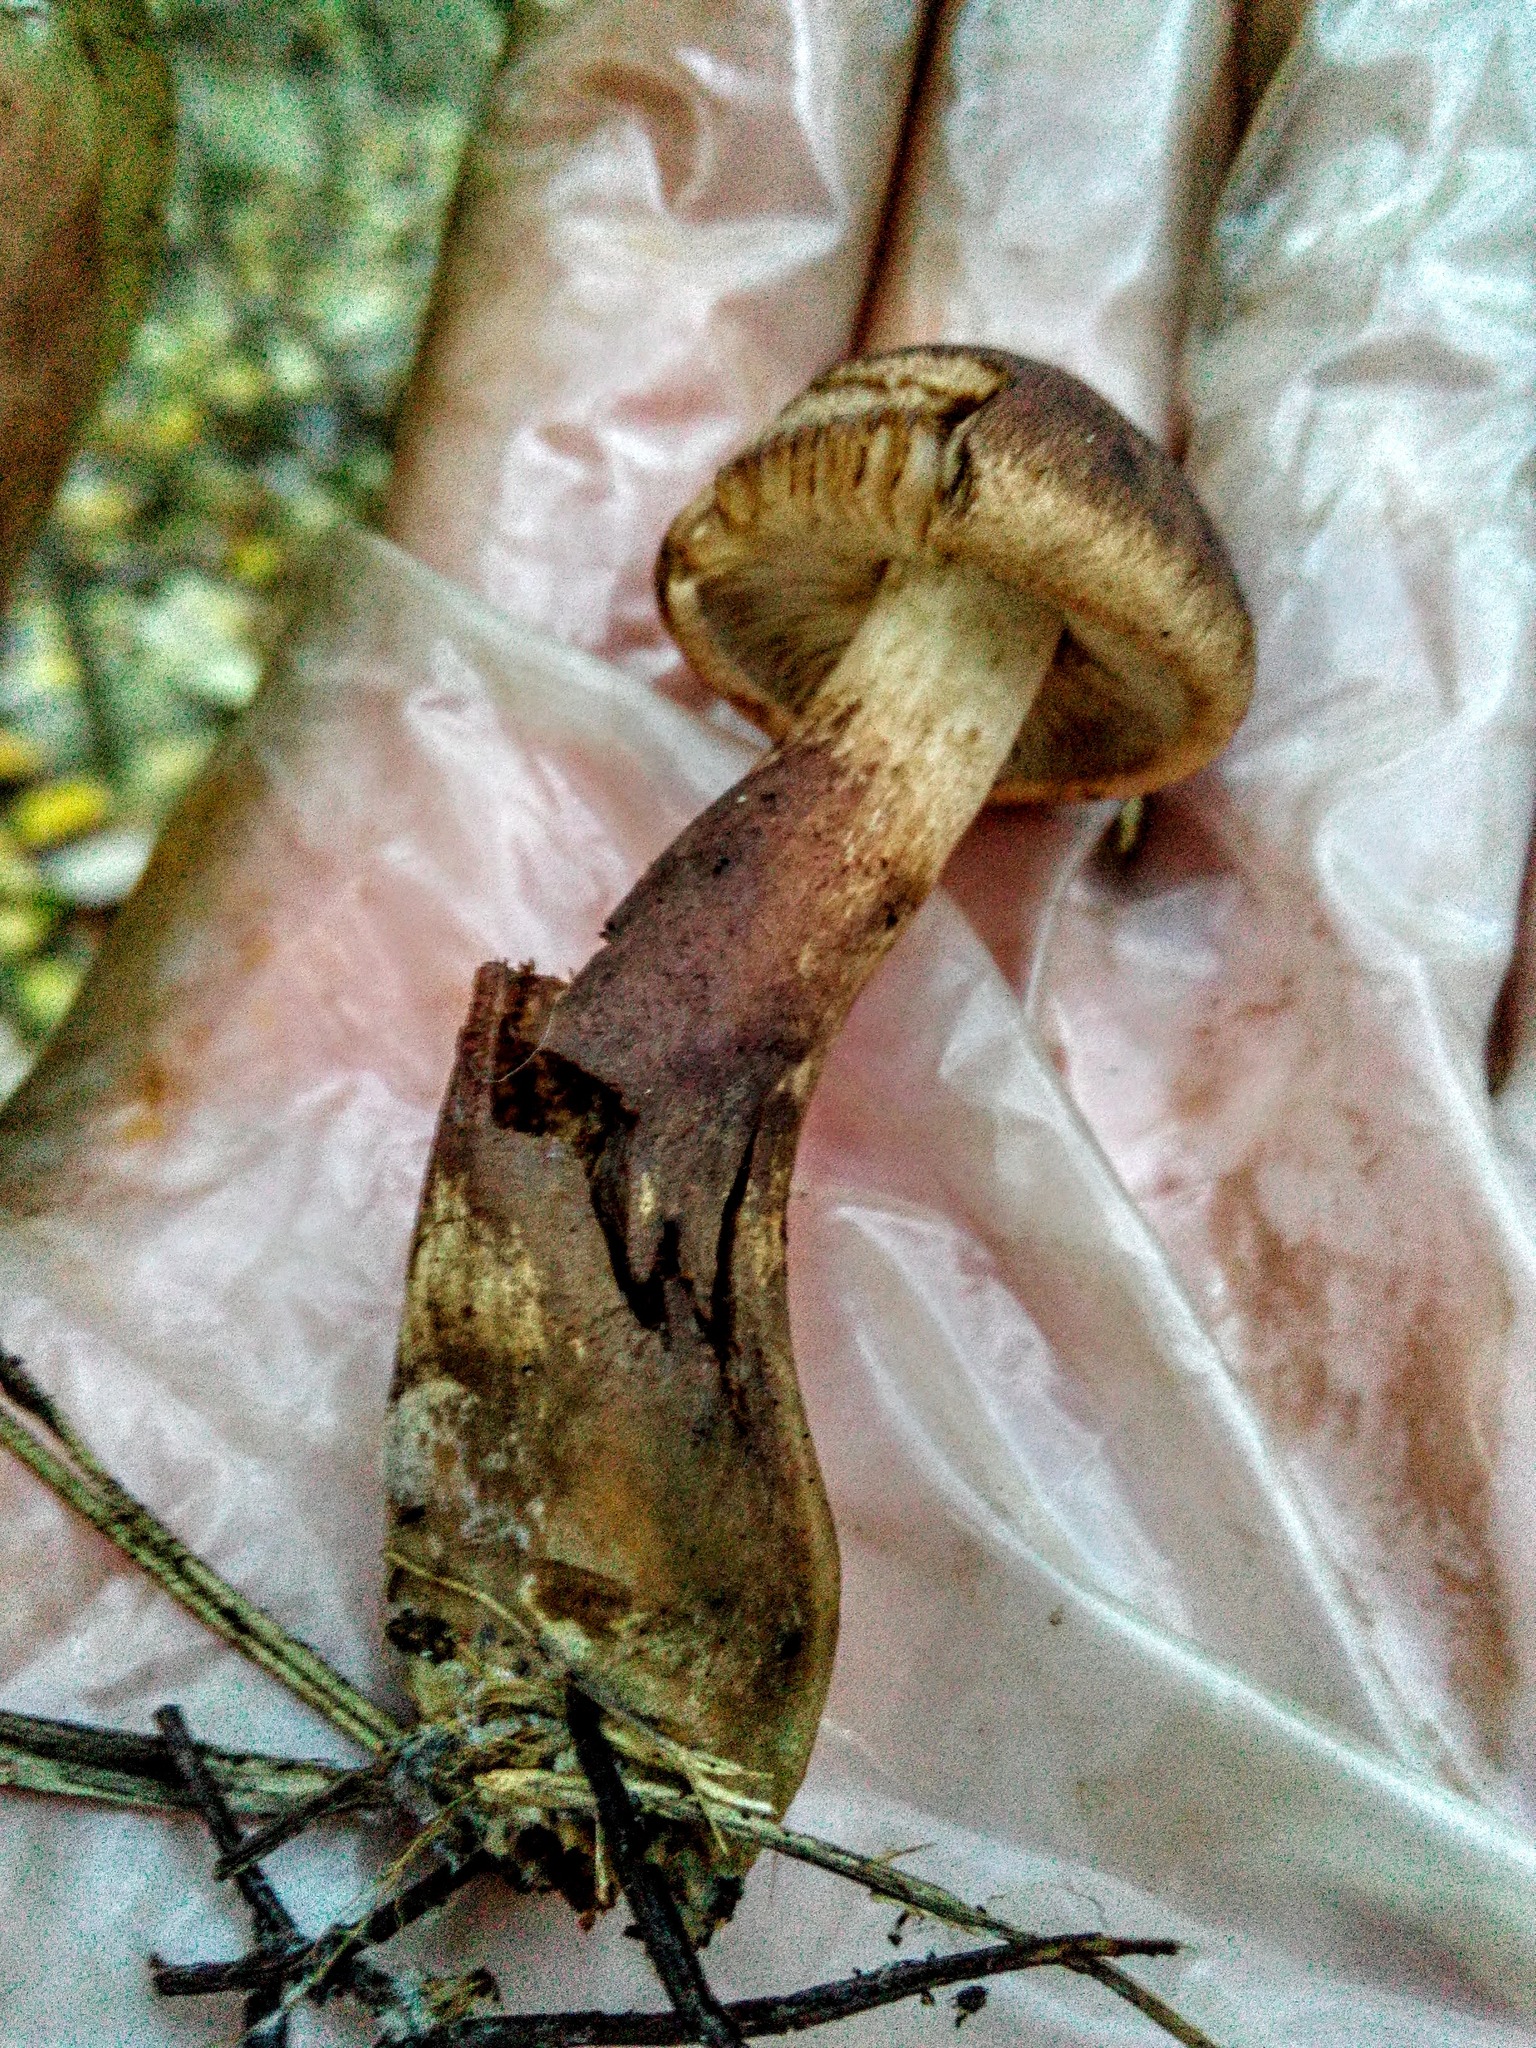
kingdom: Fungi
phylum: Basidiomycota
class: Agaricomycetes
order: Agaricales
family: Tricholomataceae
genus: Tricholoma
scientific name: Tricholoma fulvum
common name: Birch knight
